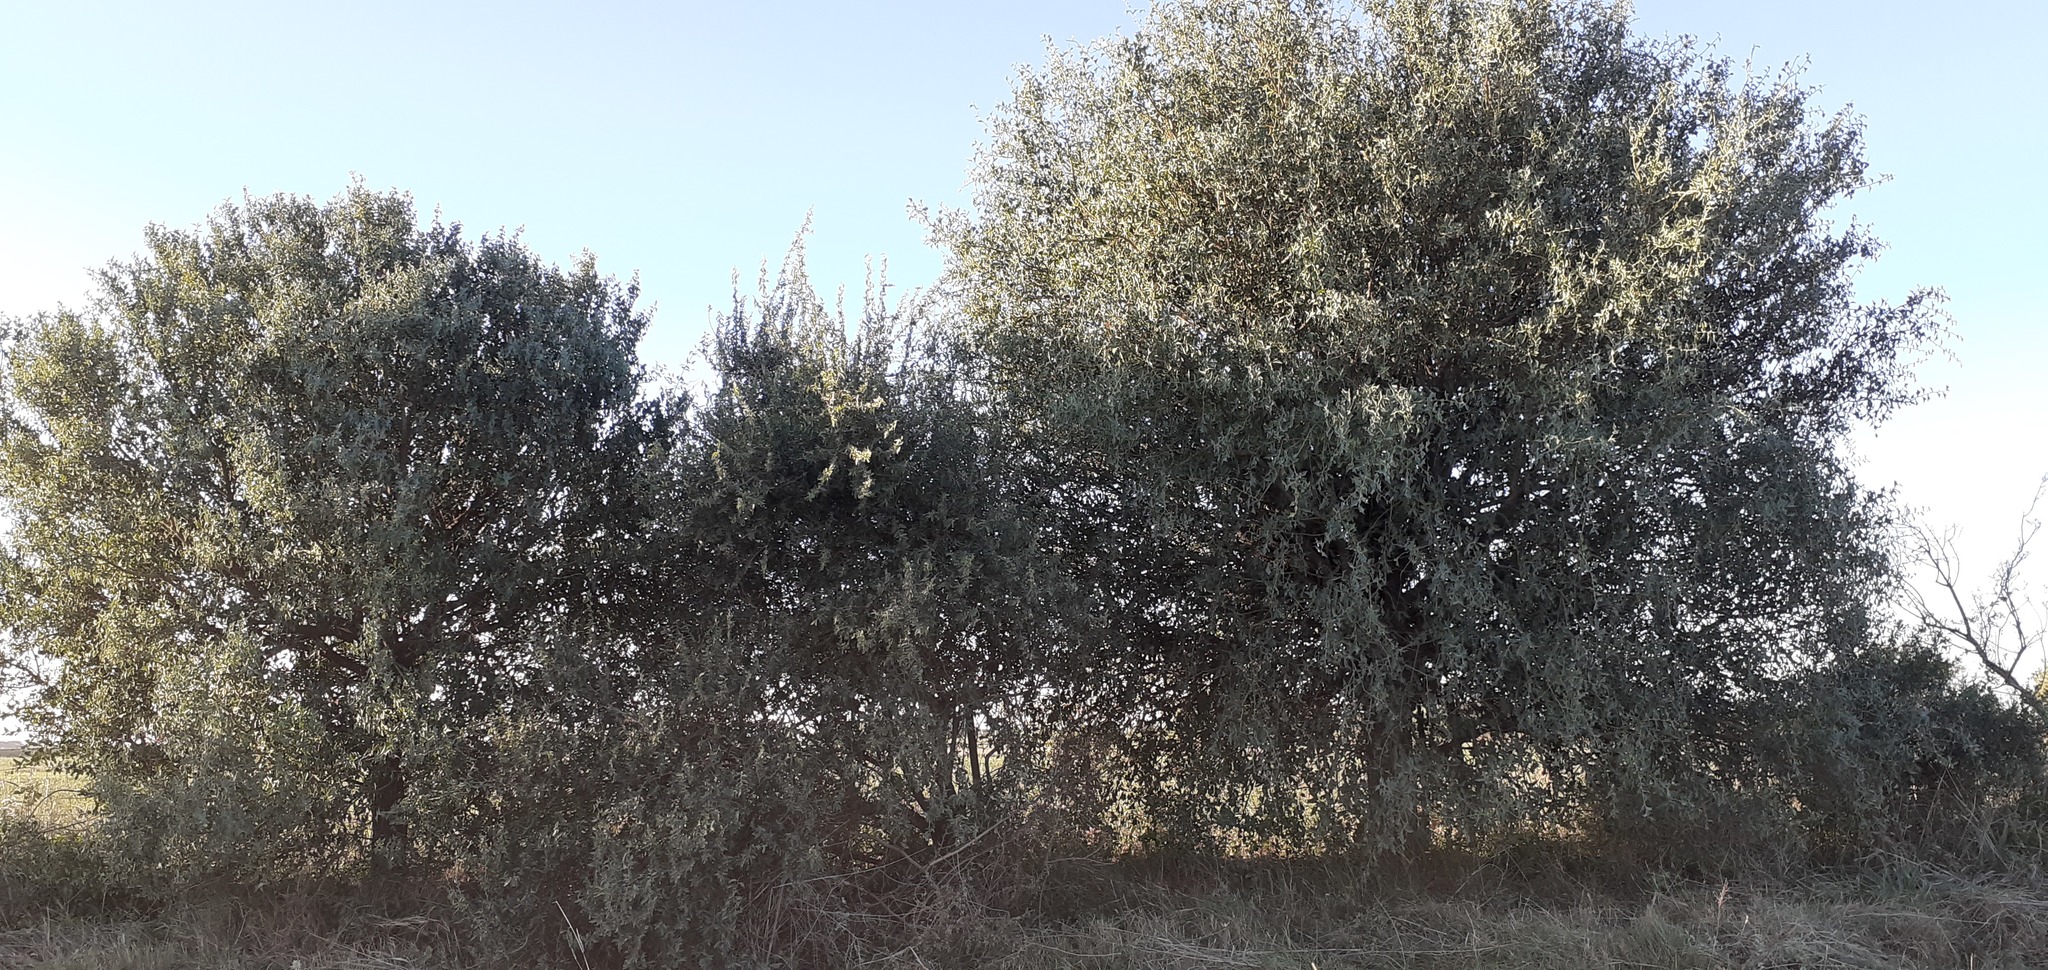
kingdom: Plantae
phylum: Tracheophyta
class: Magnoliopsida
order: Santalales
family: Cervantesiaceae
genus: Jodina
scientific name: Jodina rhombifolia
